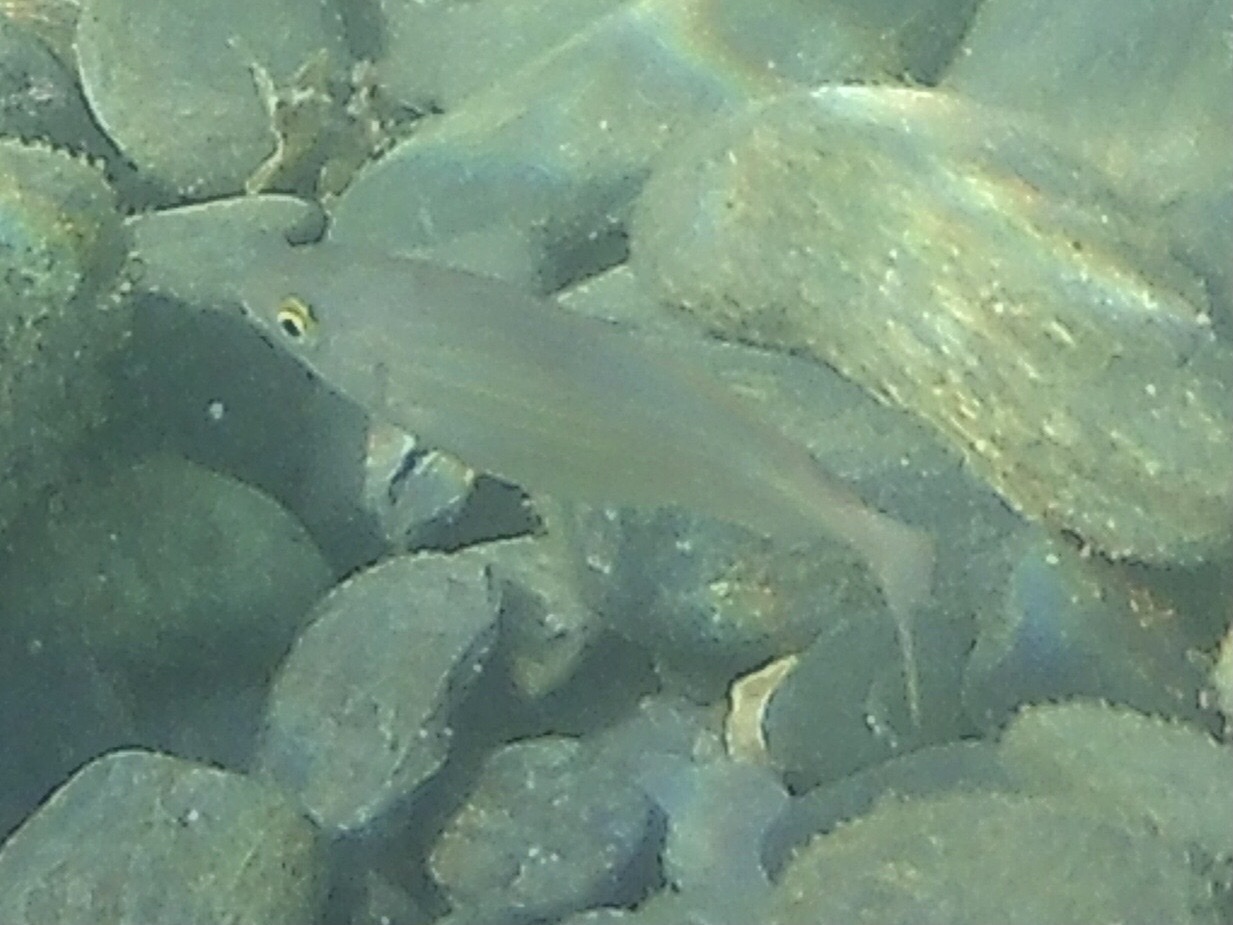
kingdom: Animalia
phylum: Chordata
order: Perciformes
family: Sparidae
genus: Sarpa
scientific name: Sarpa salpa
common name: Salema
